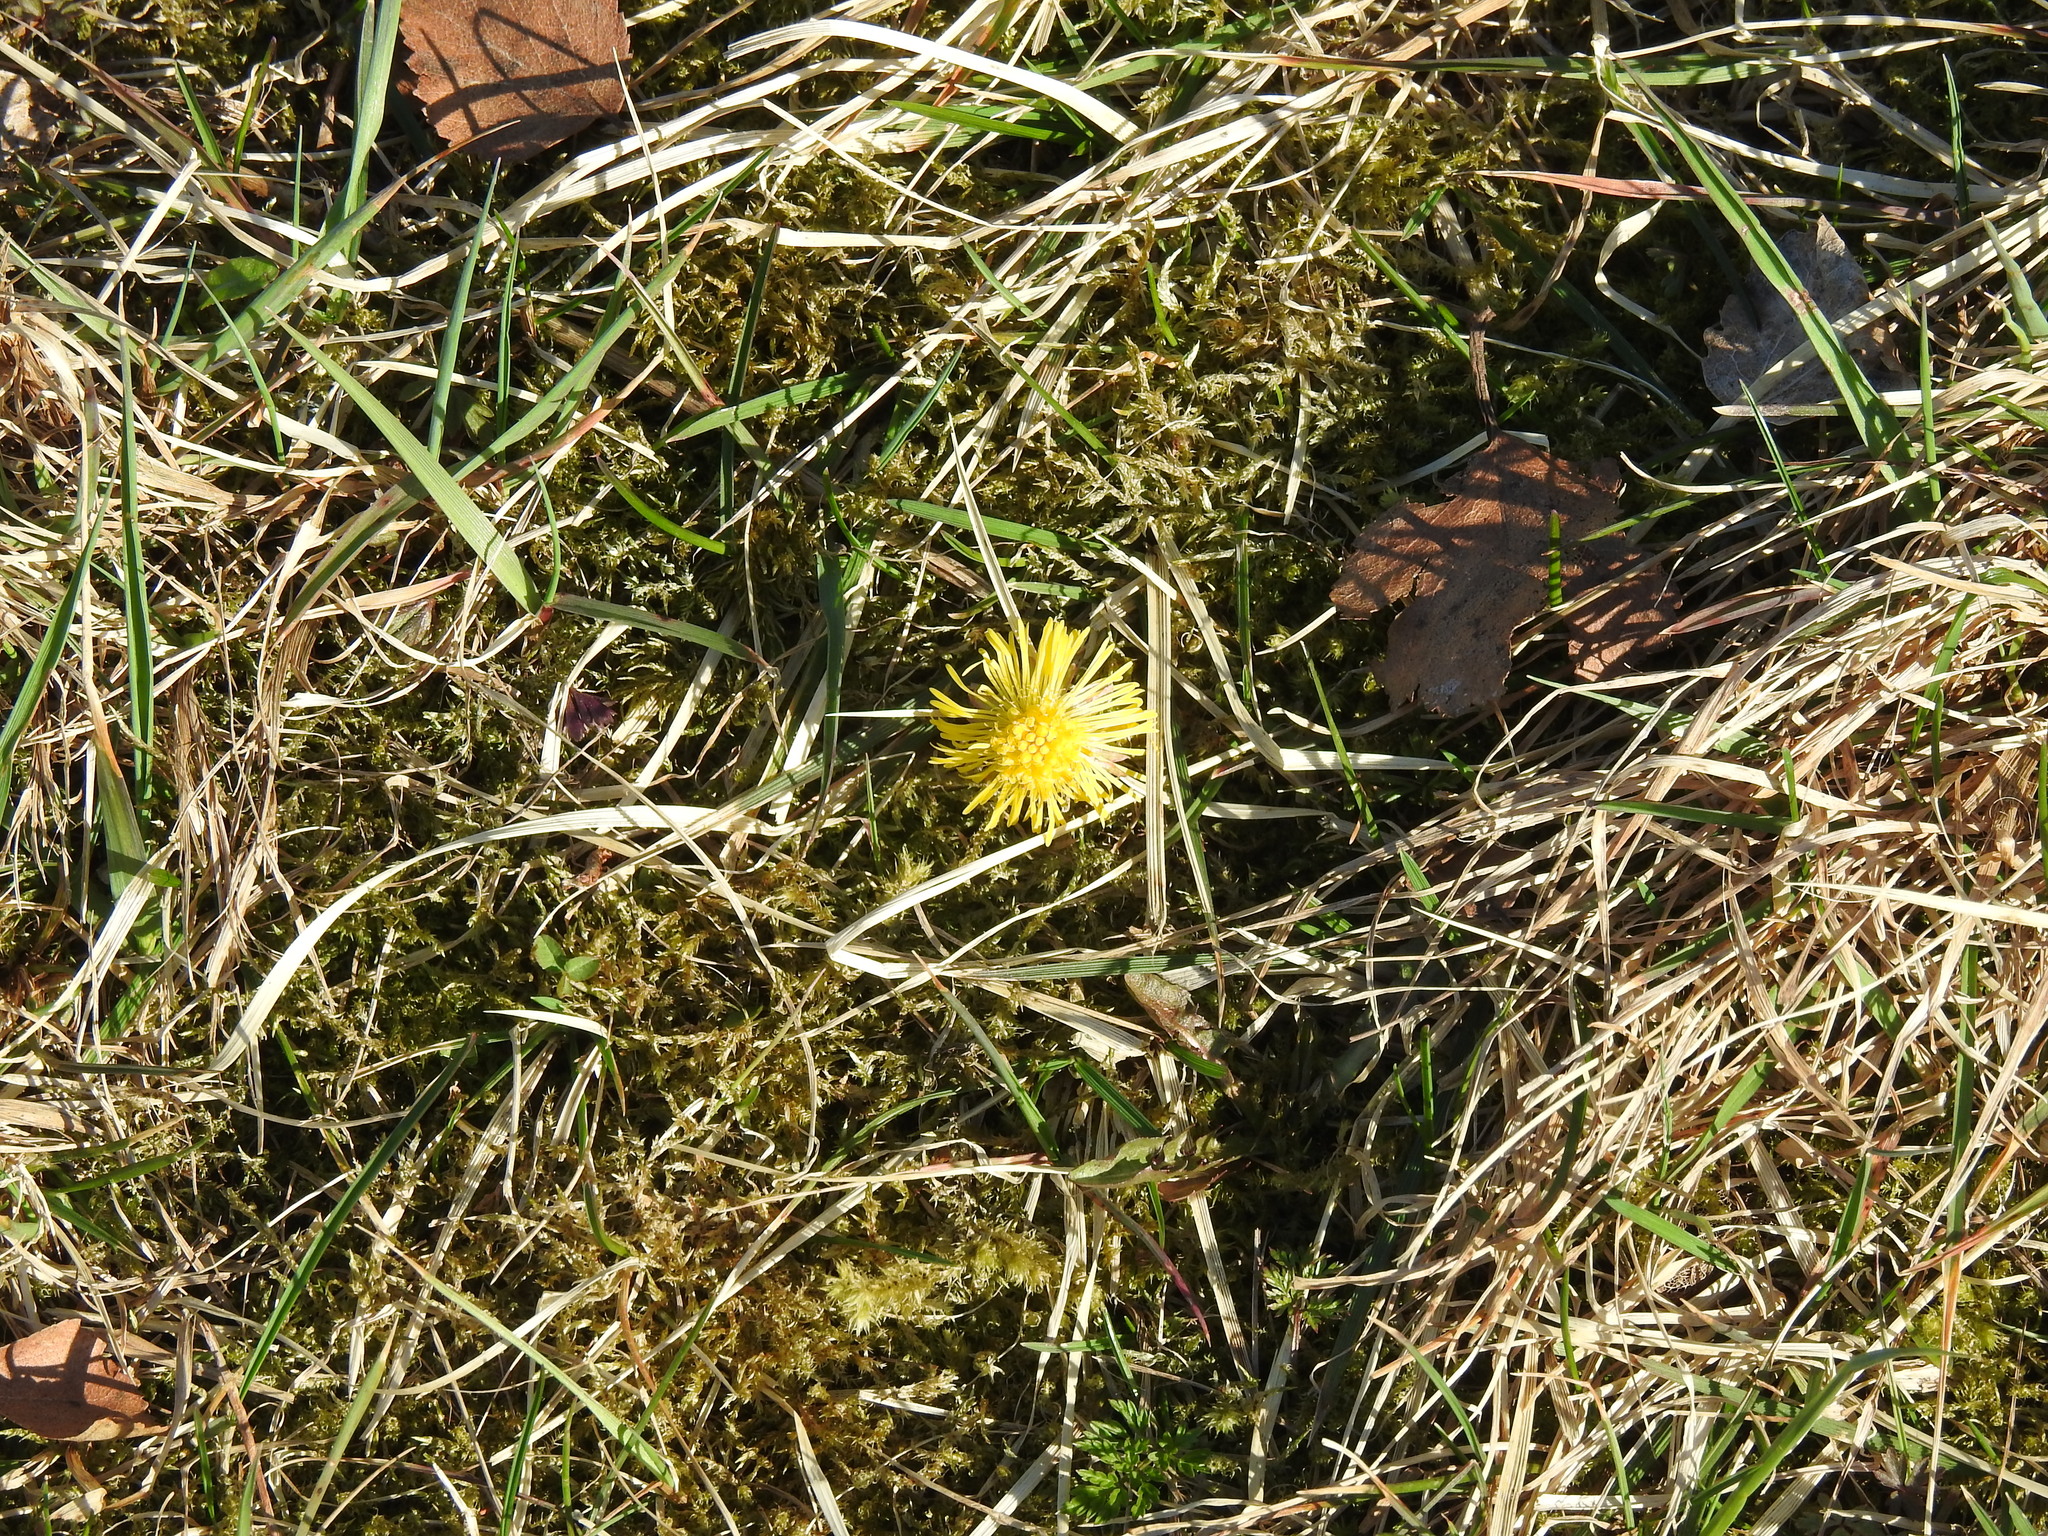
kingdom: Plantae
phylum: Tracheophyta
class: Magnoliopsida
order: Asterales
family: Asteraceae
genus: Tussilago
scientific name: Tussilago farfara
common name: Coltsfoot
